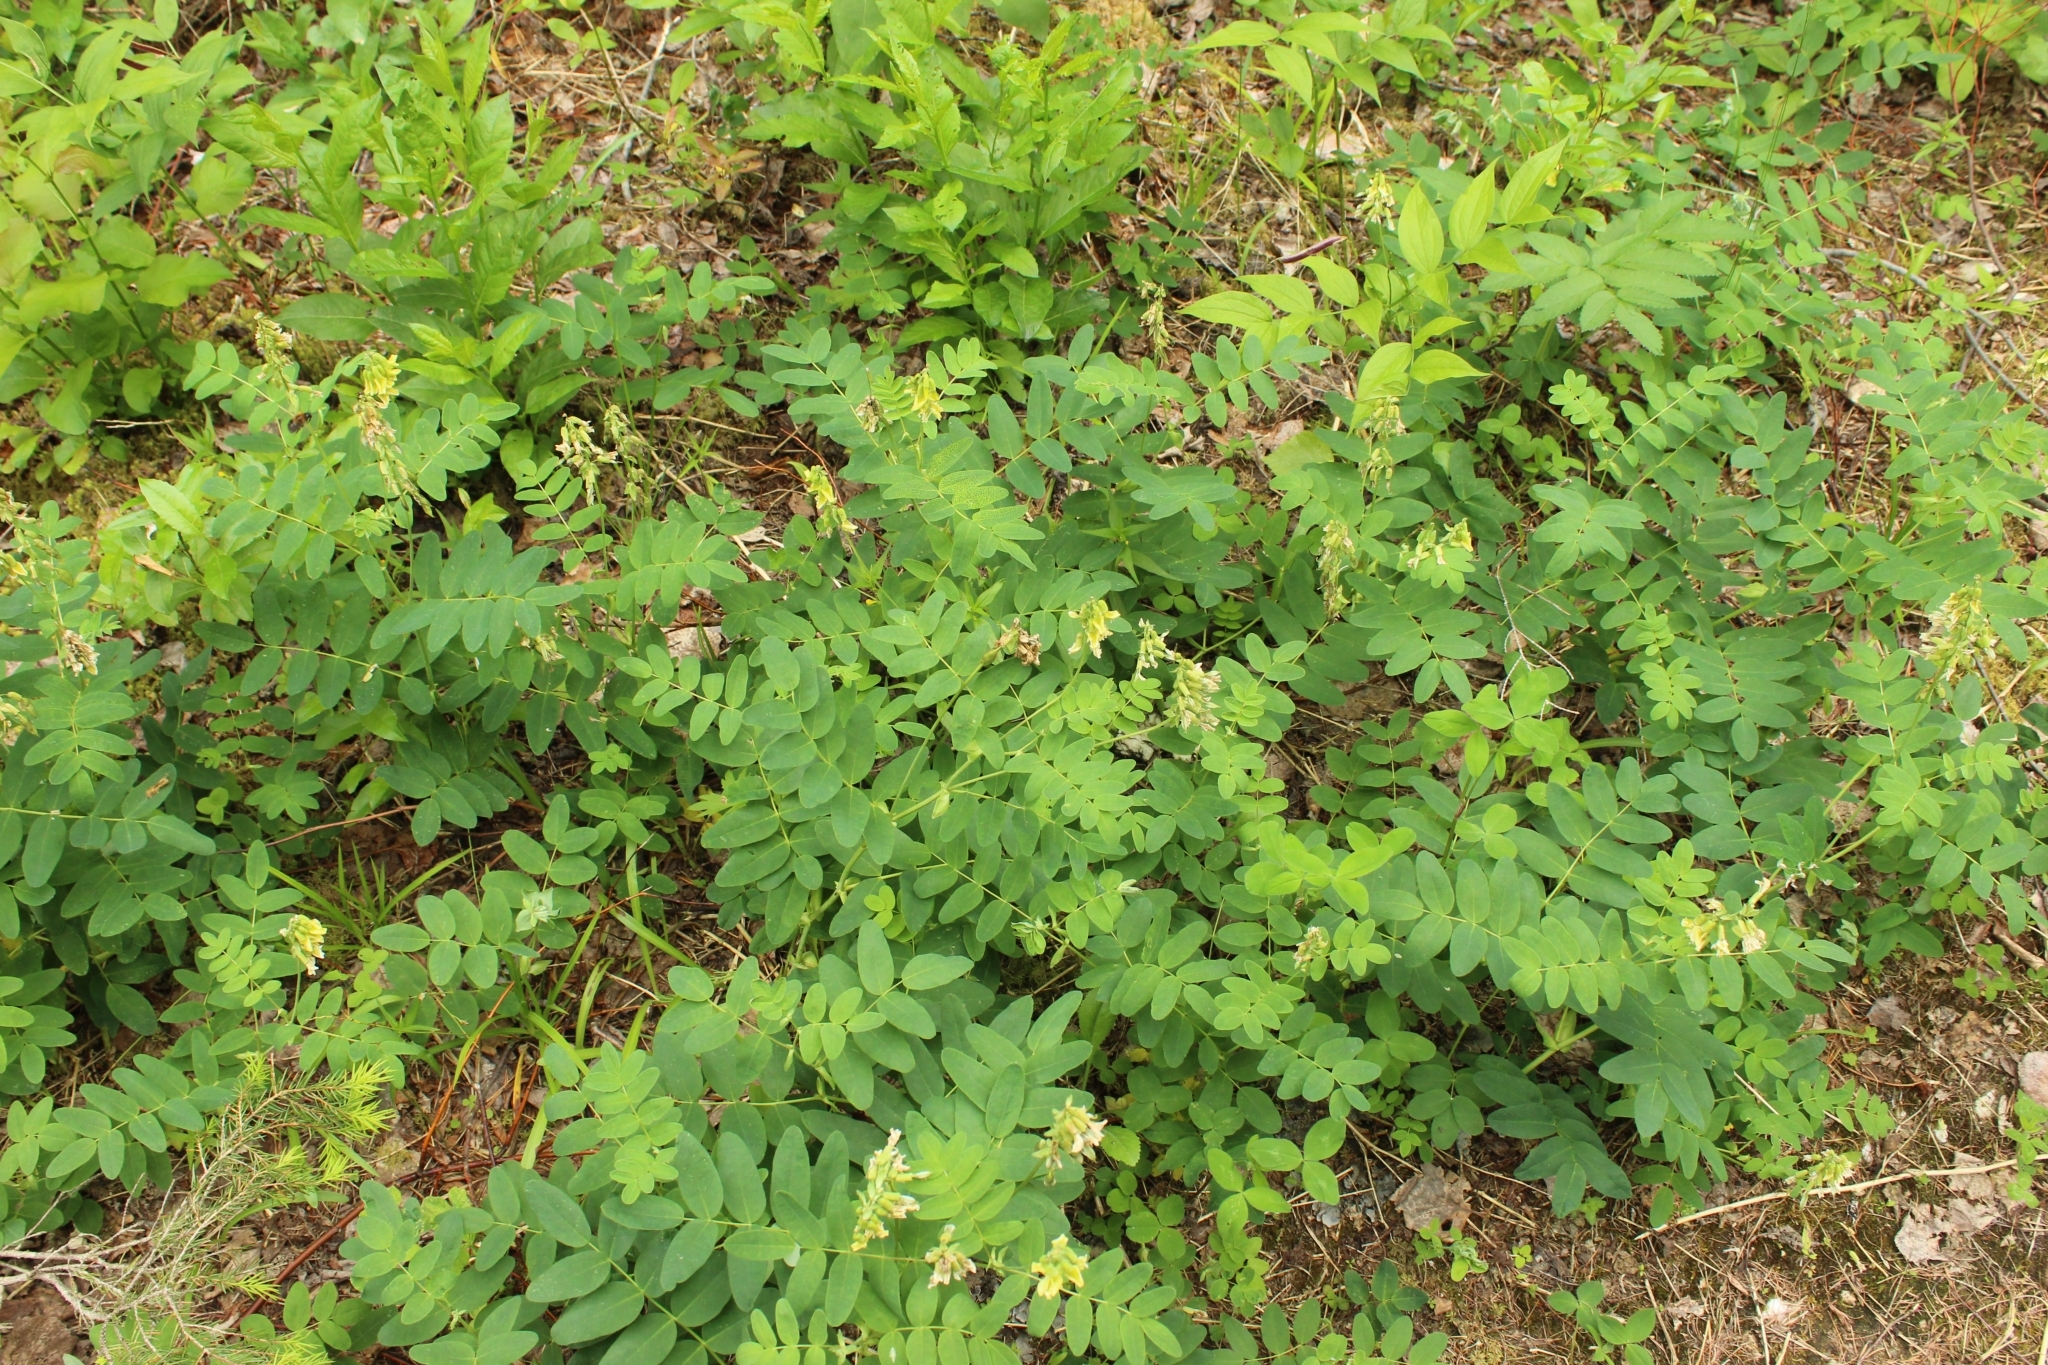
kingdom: Plantae
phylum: Tracheophyta
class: Magnoliopsida
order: Fabales
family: Fabaceae
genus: Astragalus
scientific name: Astragalus frigidus
